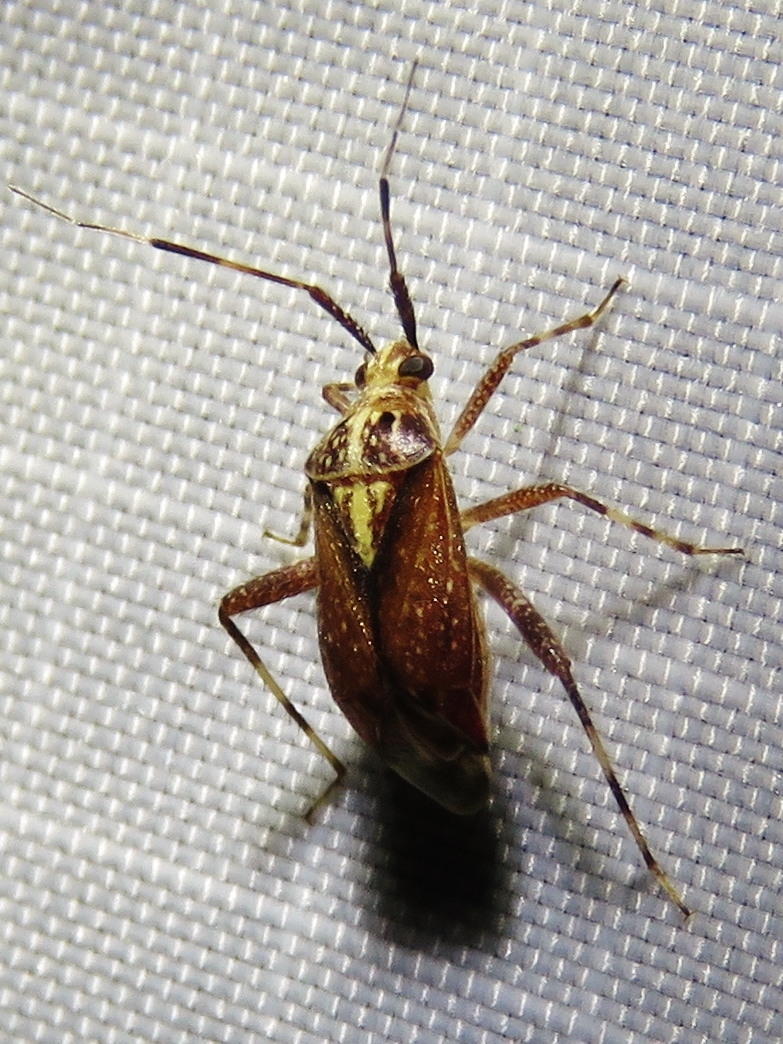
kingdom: Animalia
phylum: Arthropoda
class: Insecta
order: Hemiptera
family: Miridae
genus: Taedia
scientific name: Taedia celtidis
